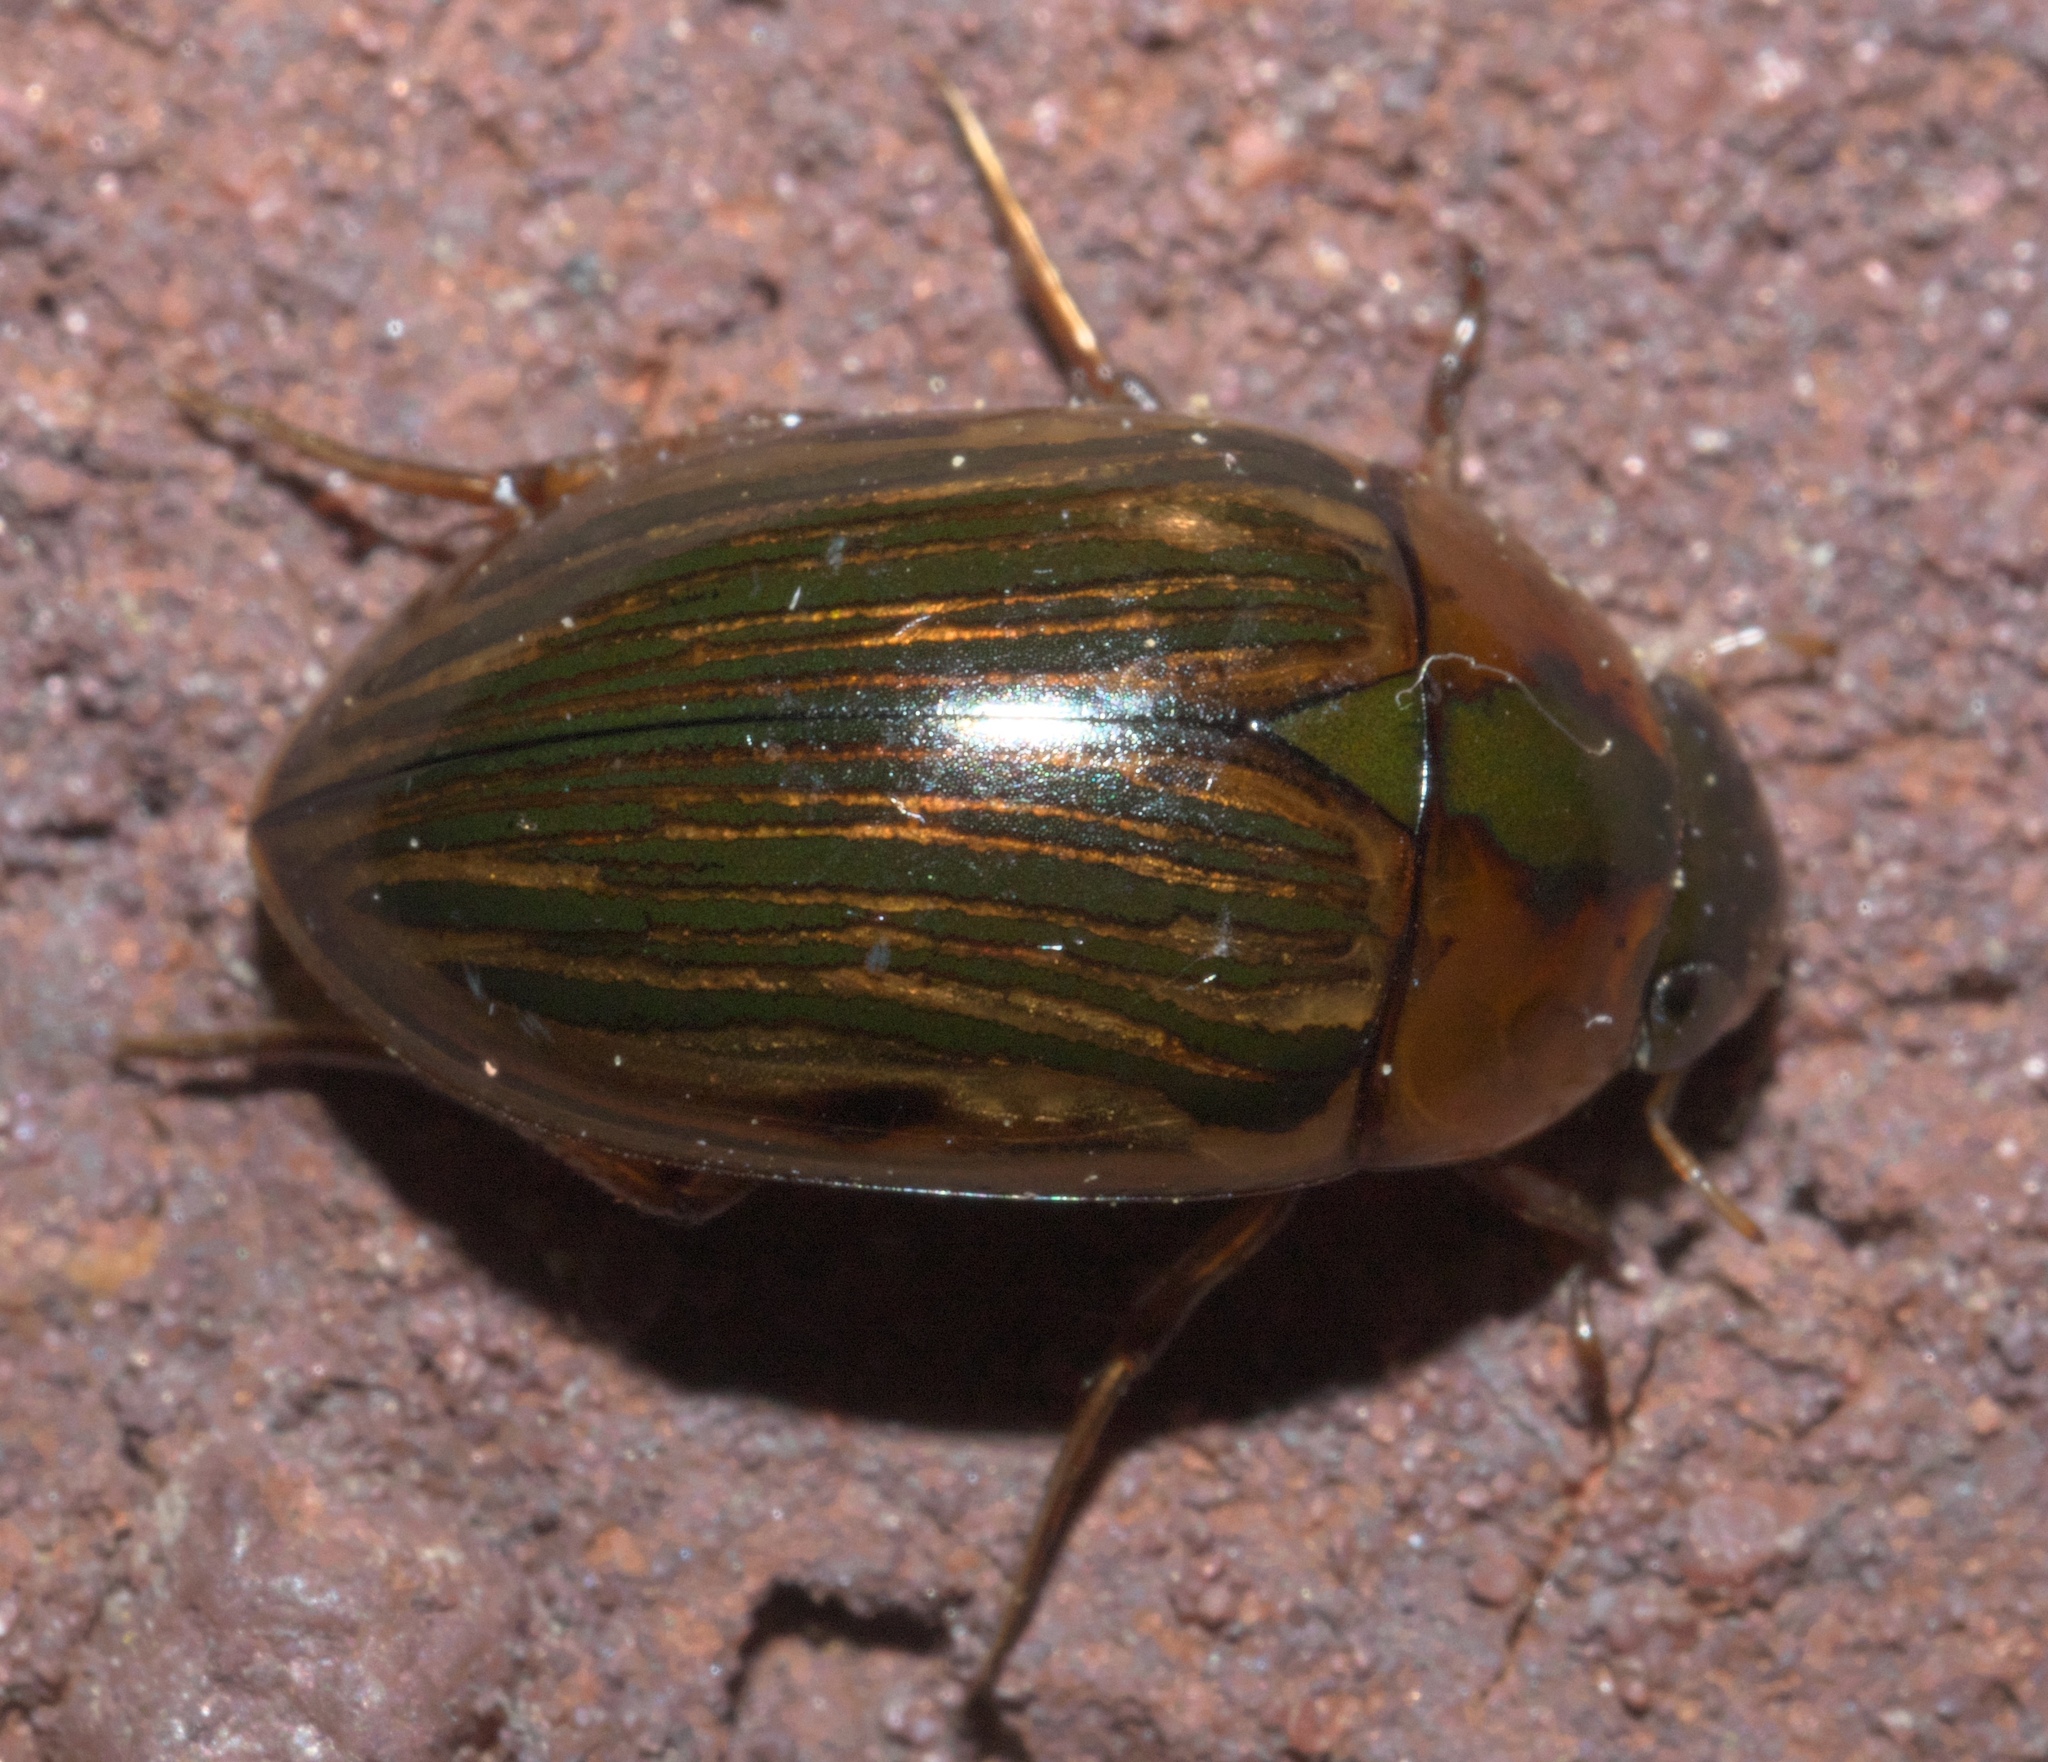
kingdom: Animalia
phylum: Arthropoda
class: Insecta
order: Coleoptera
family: Hydrophilidae
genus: Tropisternus
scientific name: Tropisternus collaris
